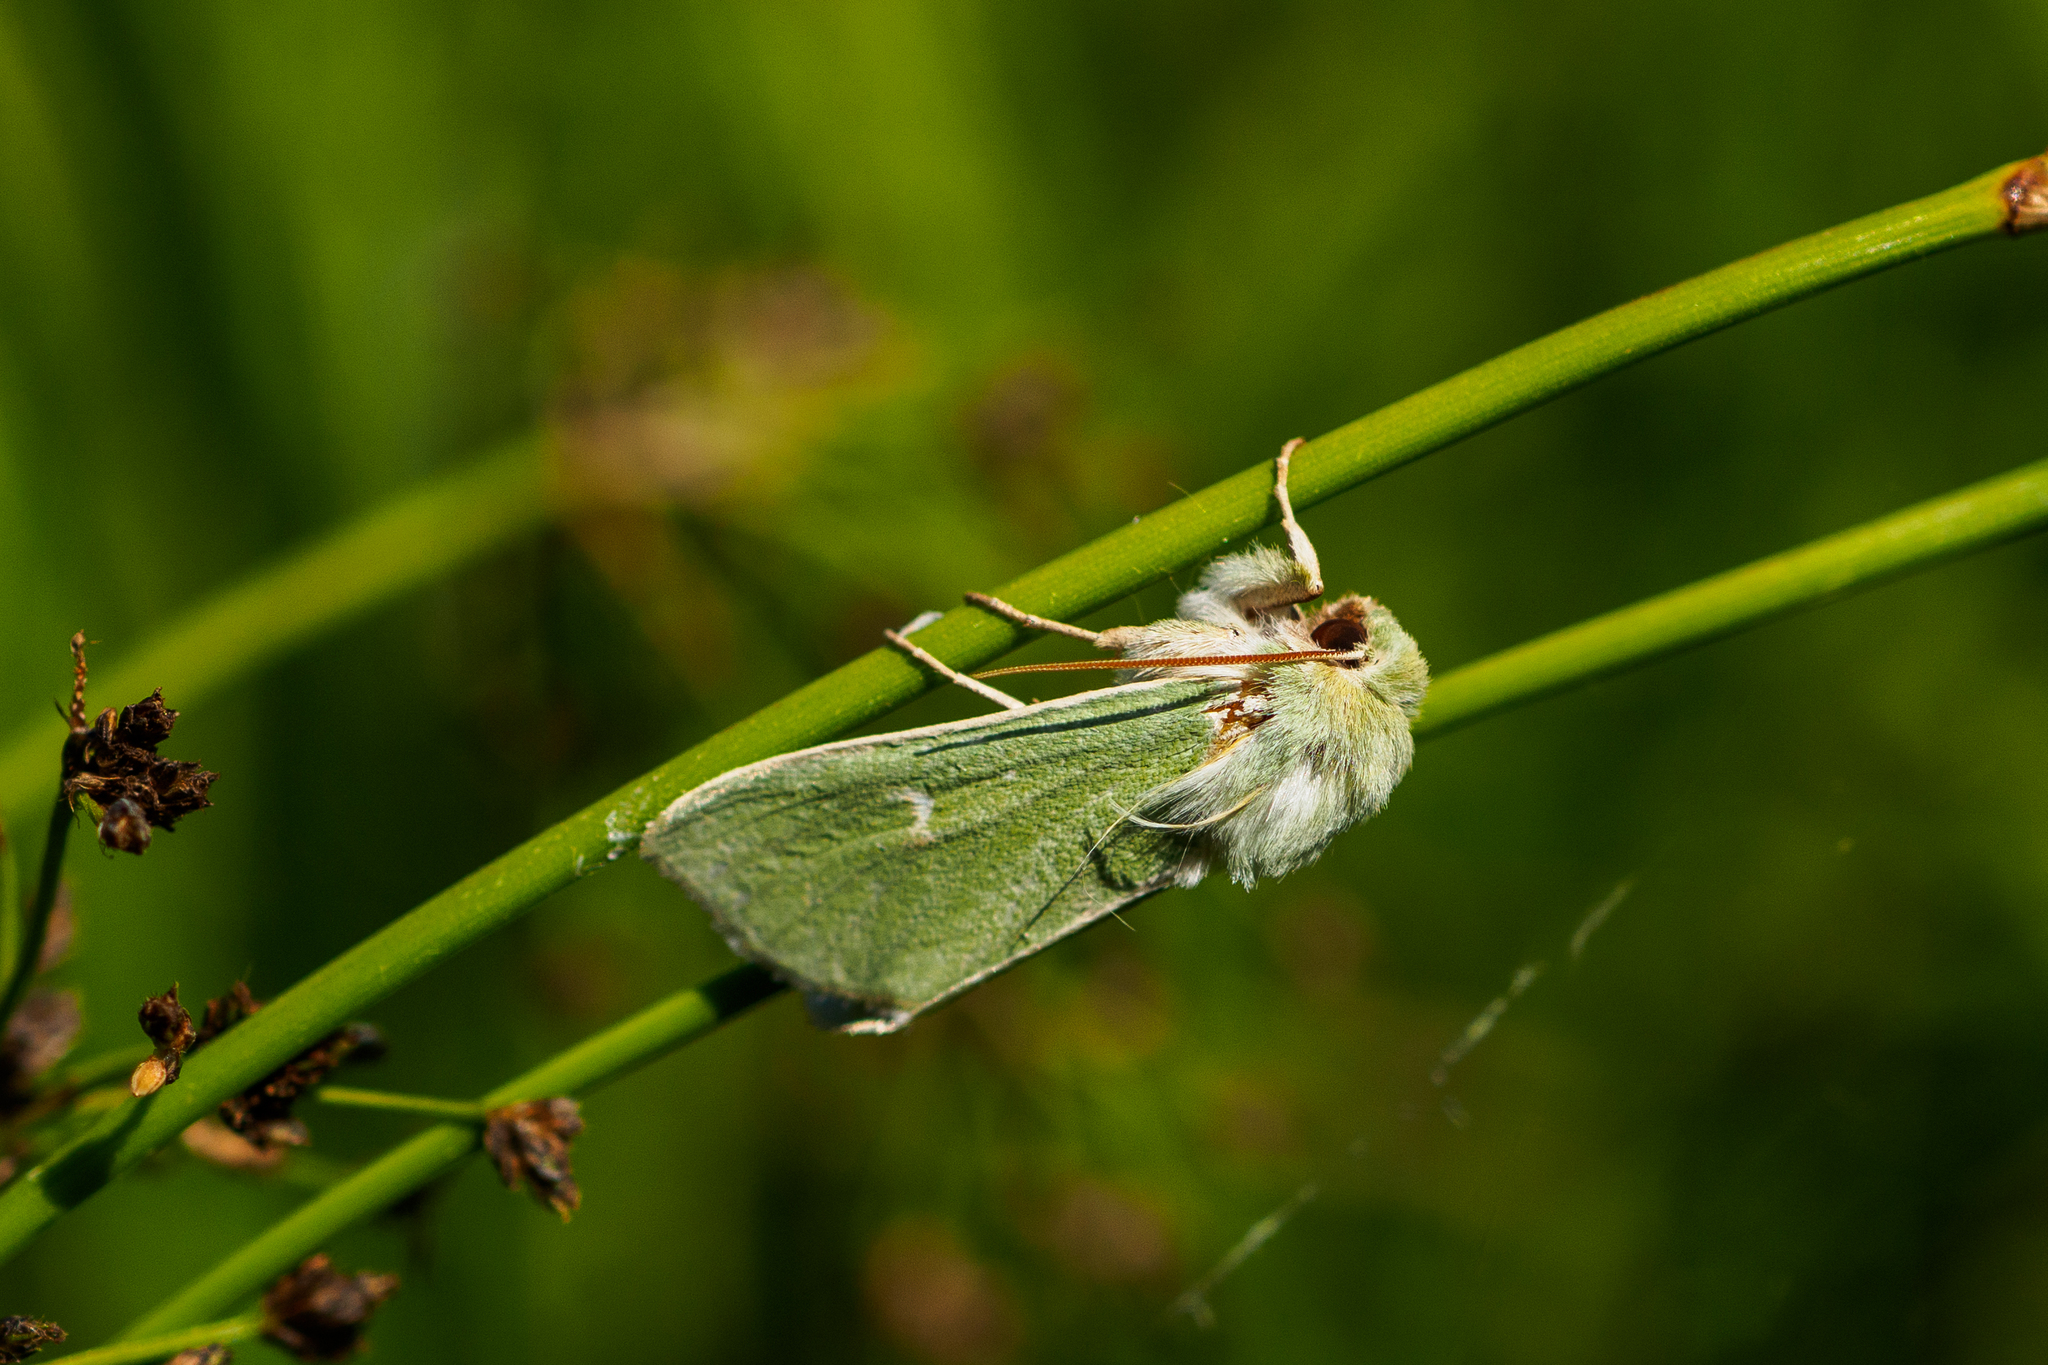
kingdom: Animalia
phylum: Arthropoda
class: Insecta
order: Lepidoptera
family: Noctuidae
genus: Calamia
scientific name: Calamia tridens
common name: Burren green
